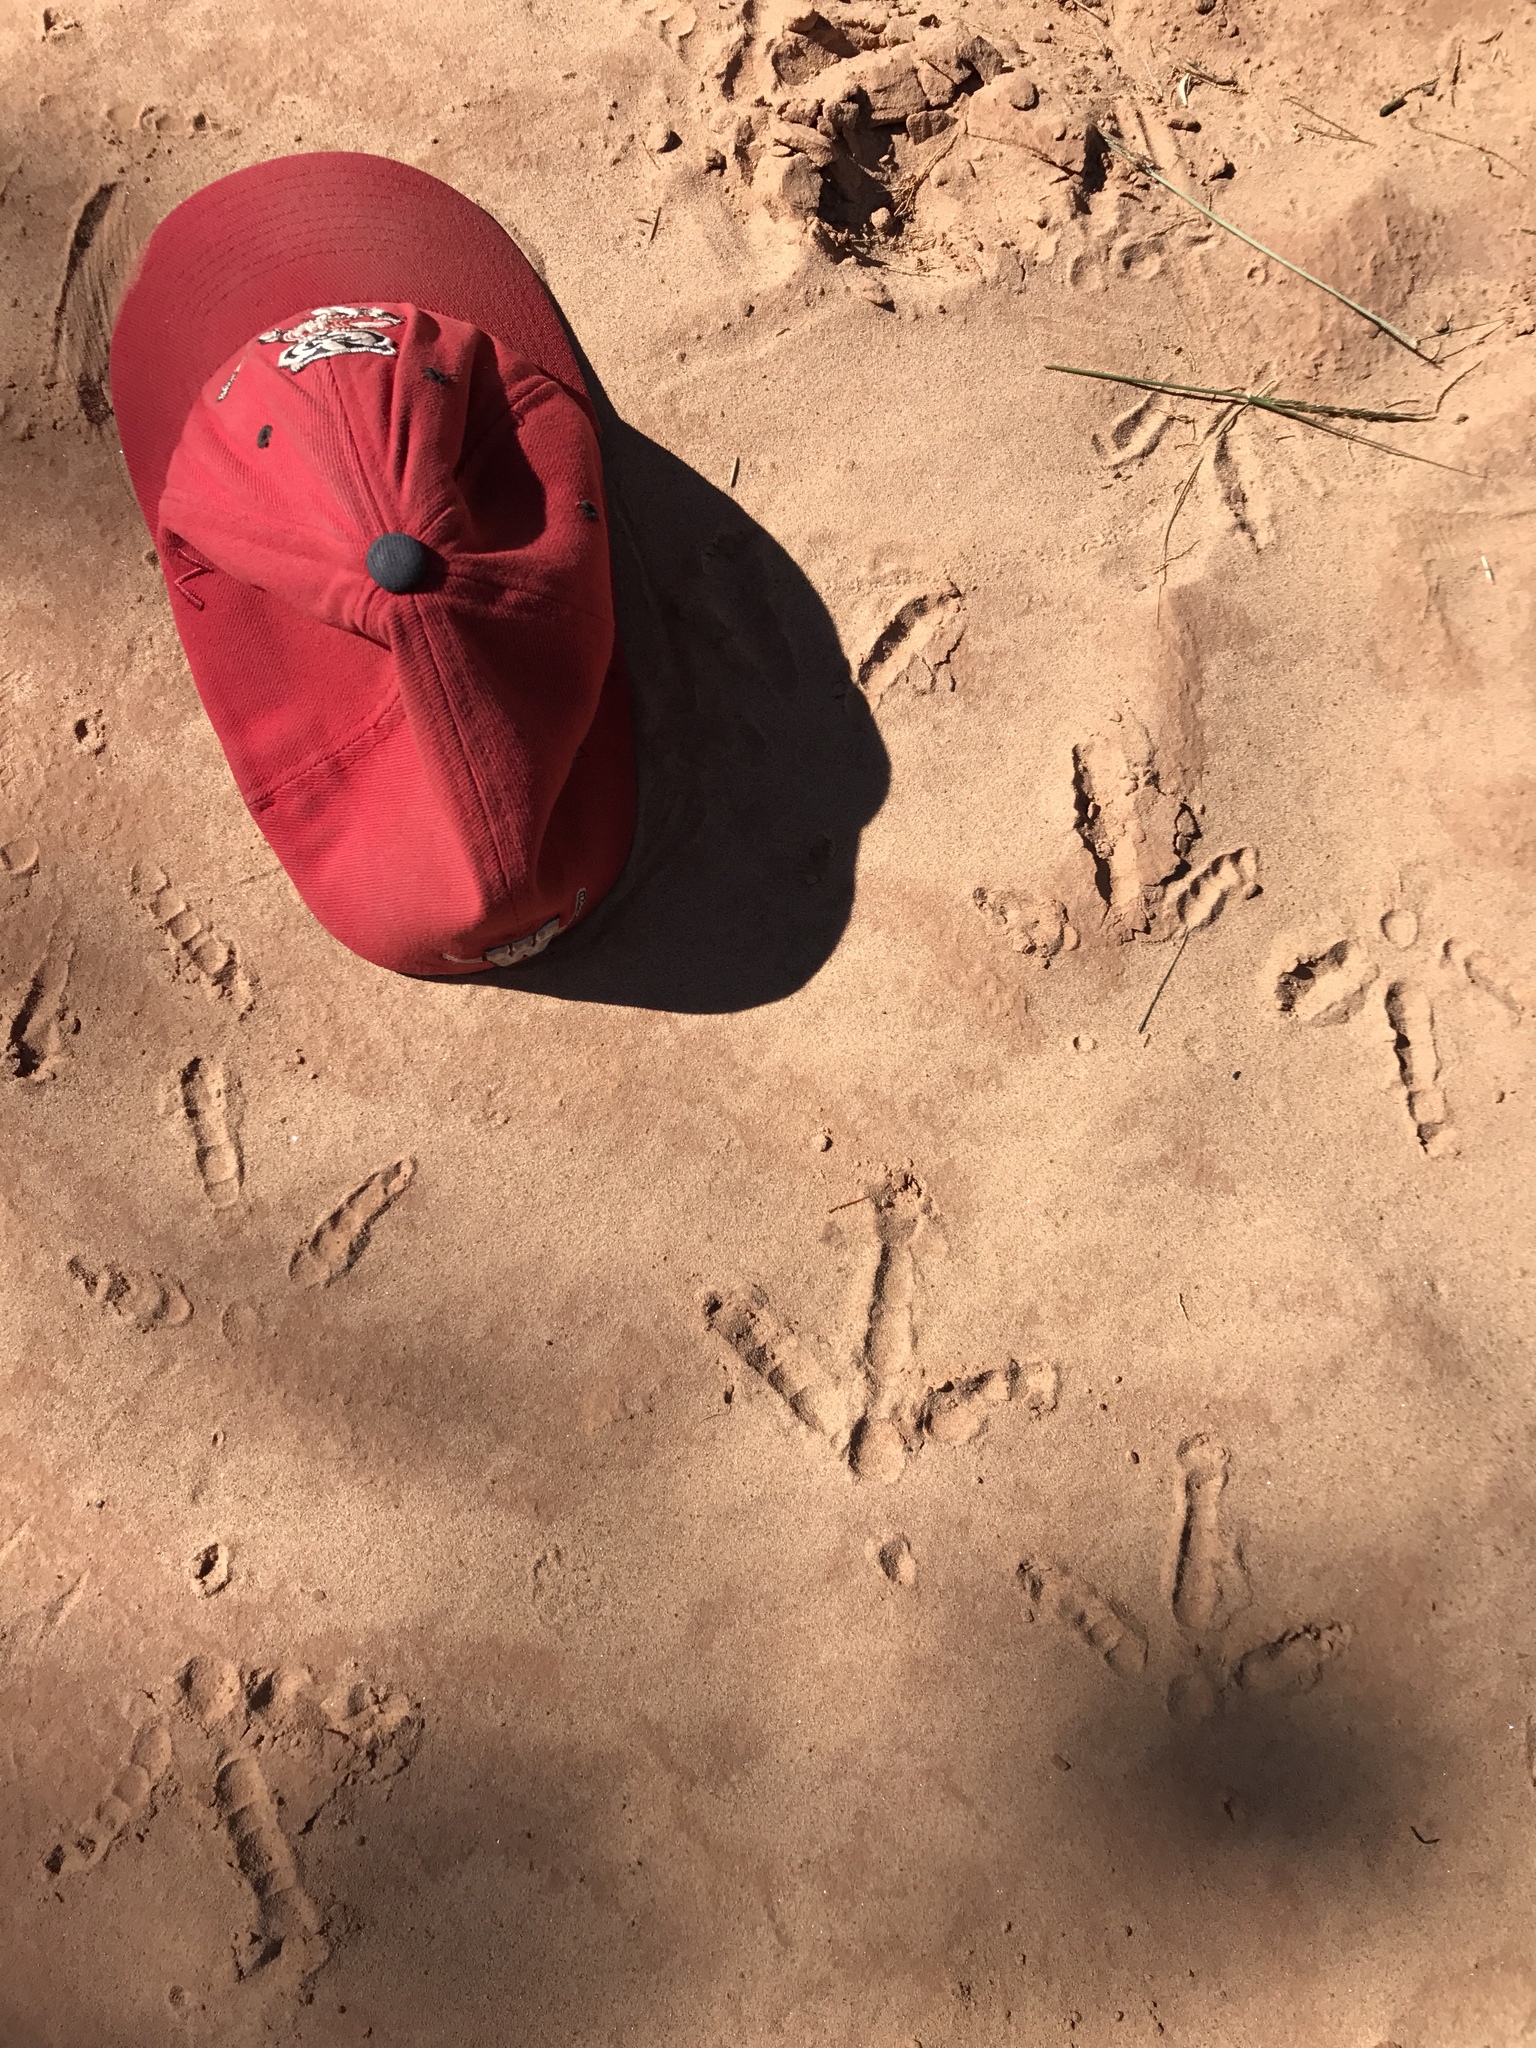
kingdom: Animalia
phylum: Chordata
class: Aves
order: Galliformes
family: Phasianidae
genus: Meleagris
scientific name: Meleagris gallopavo
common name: Wild turkey
